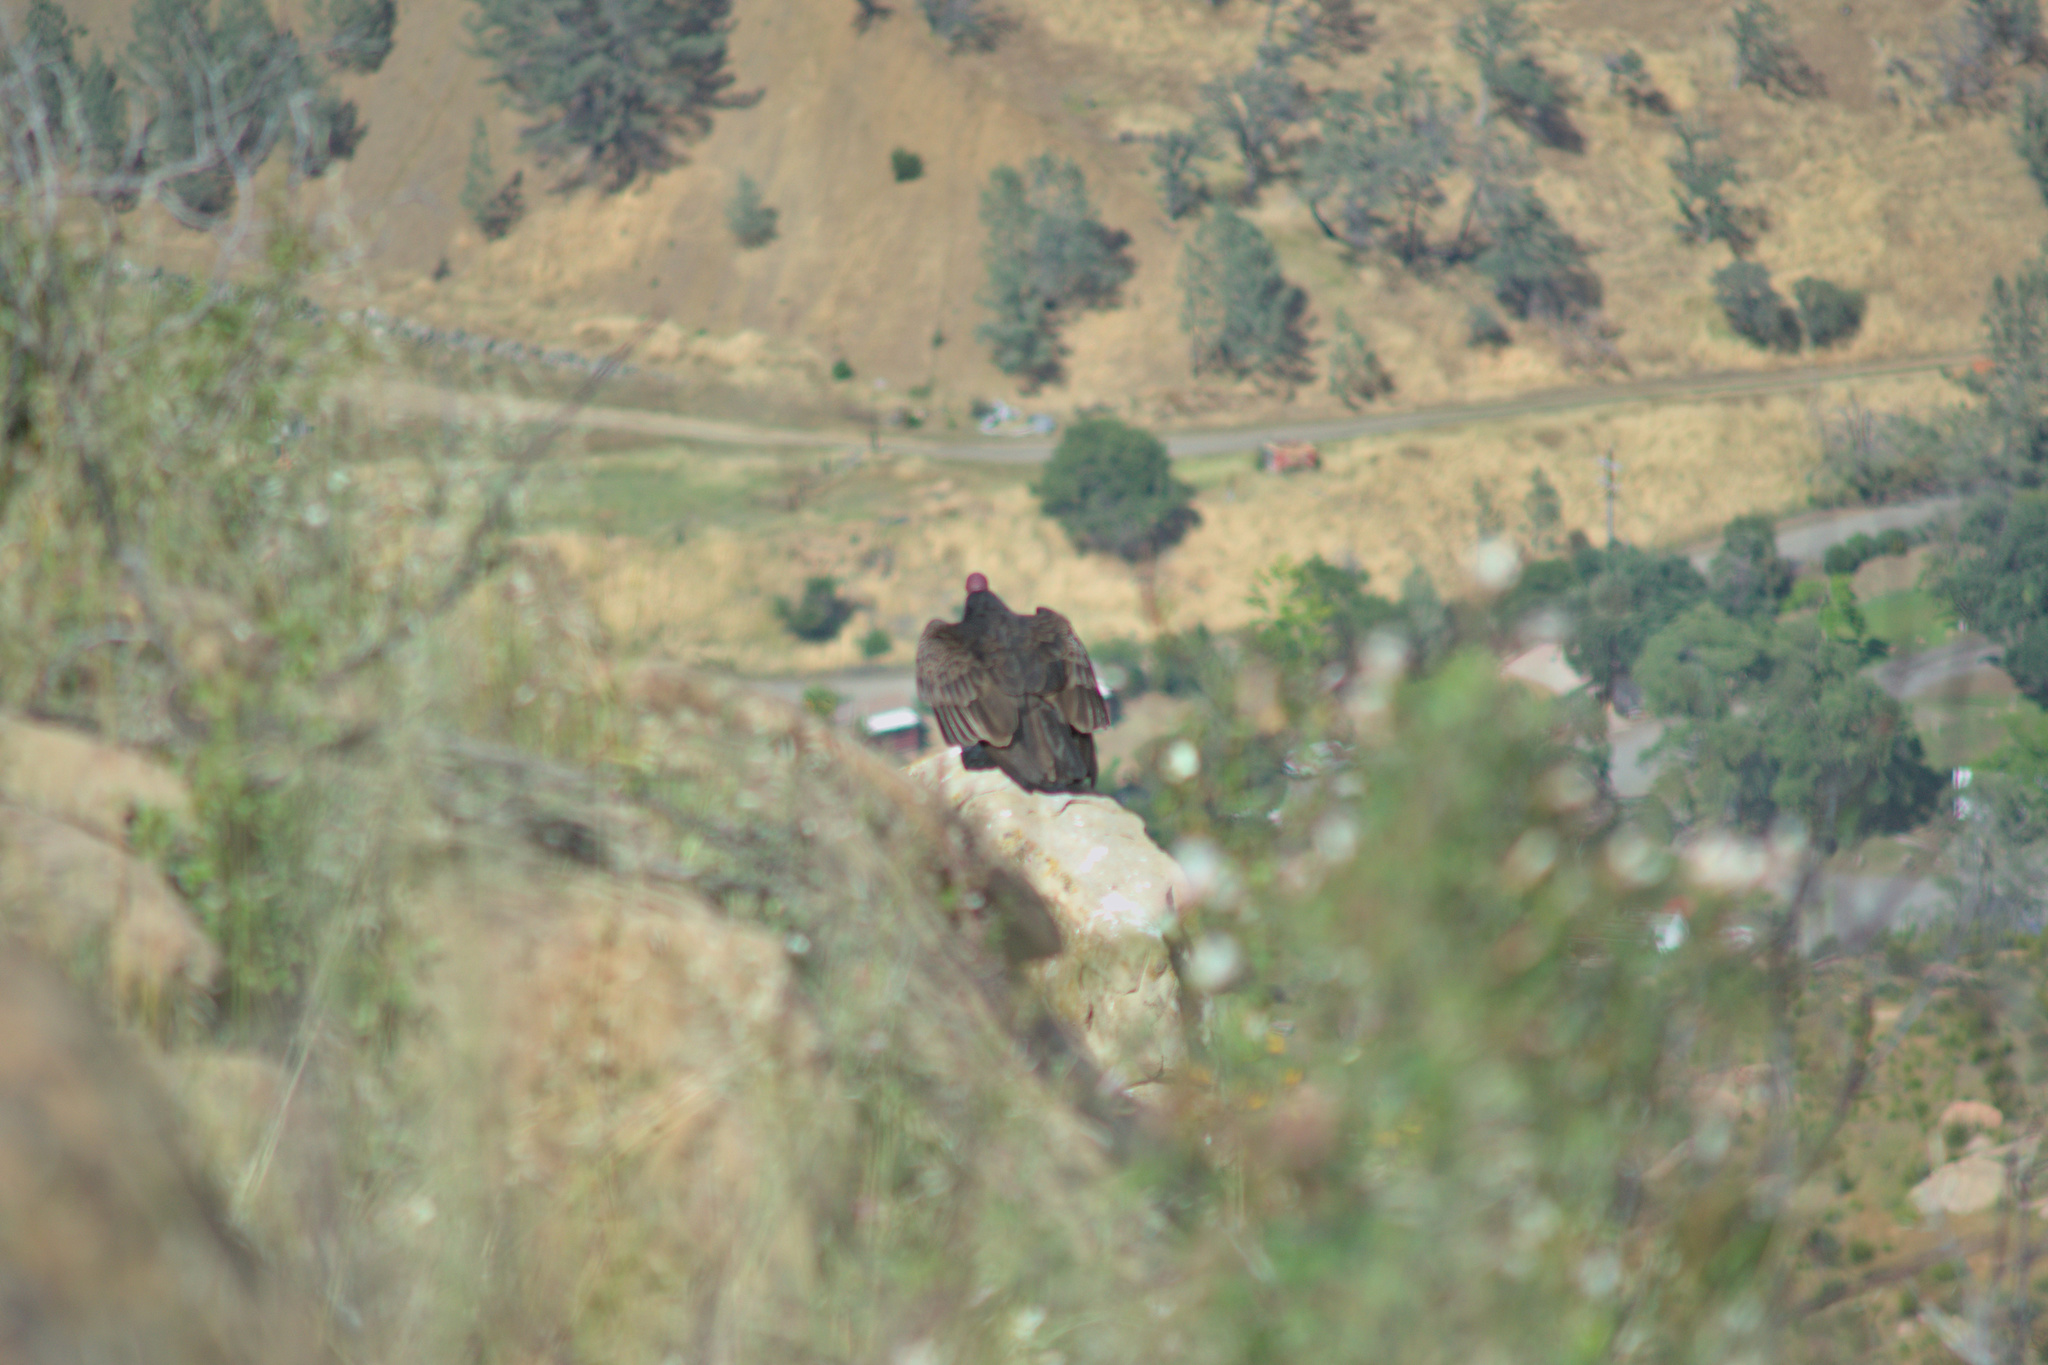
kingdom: Animalia
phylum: Chordata
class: Aves
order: Accipitriformes
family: Cathartidae
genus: Cathartes
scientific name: Cathartes aura
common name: Turkey vulture
